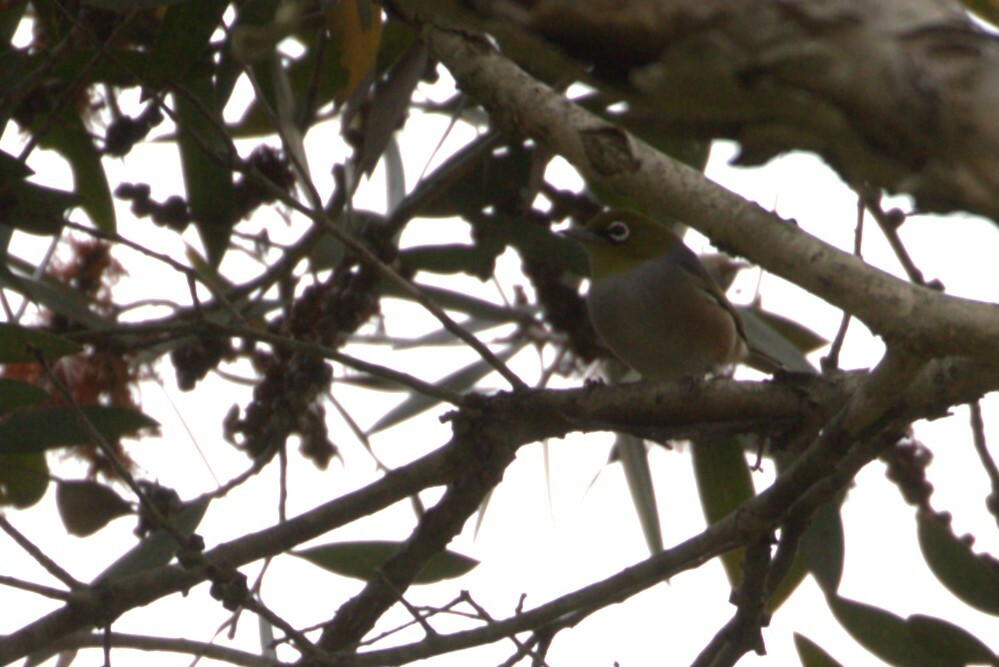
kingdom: Animalia
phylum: Chordata
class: Aves
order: Passeriformes
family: Zosteropidae
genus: Zosterops
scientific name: Zosterops lateralis
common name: Silvereye
